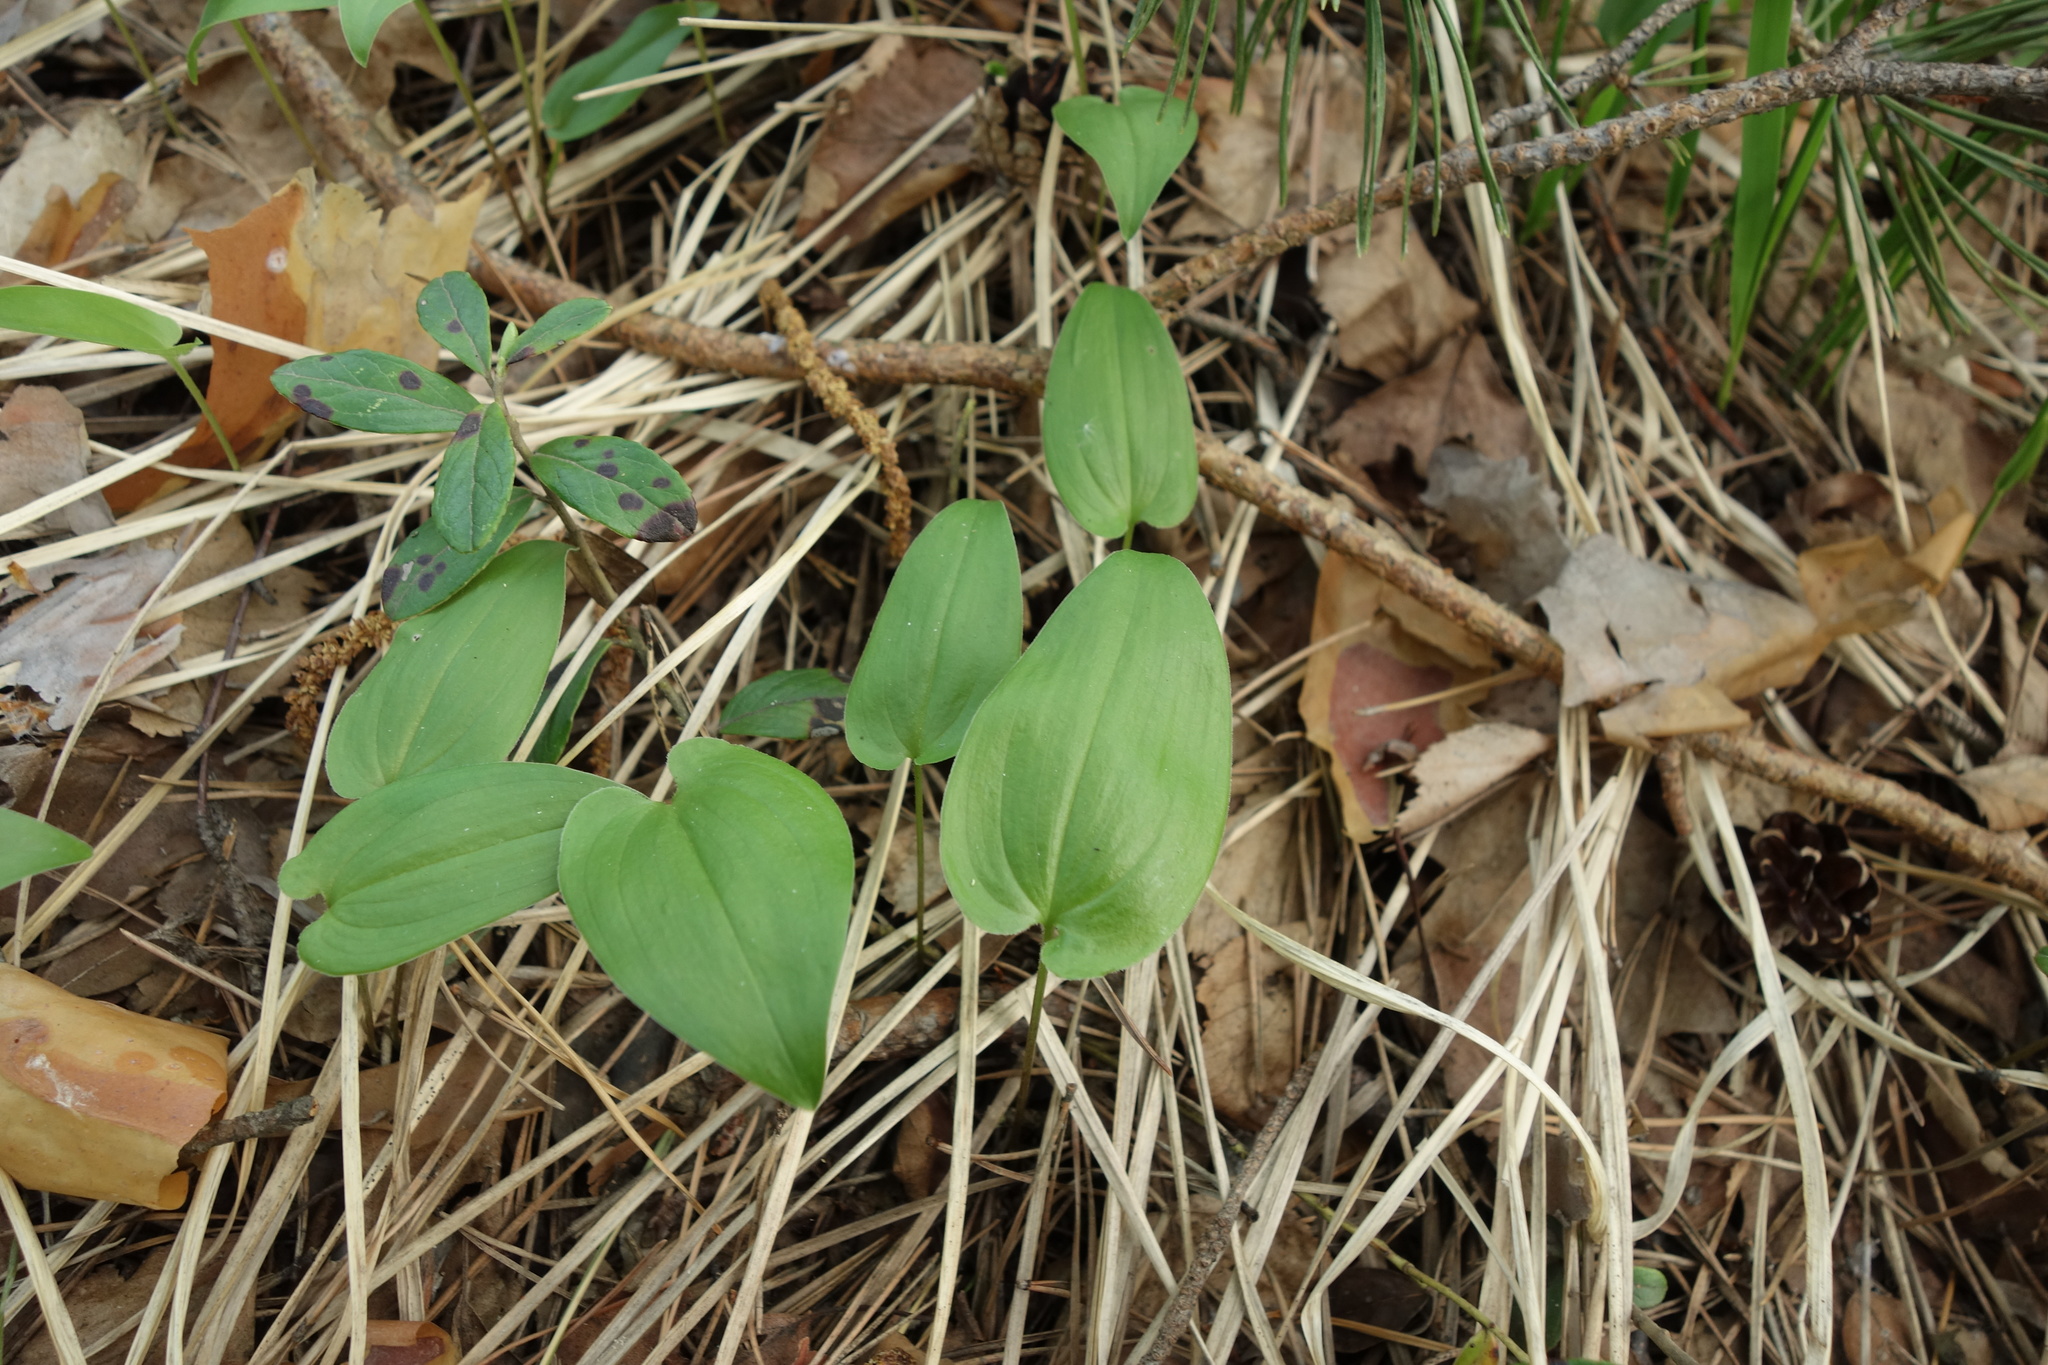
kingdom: Plantae
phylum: Tracheophyta
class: Liliopsida
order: Asparagales
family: Asparagaceae
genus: Maianthemum
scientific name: Maianthemum bifolium
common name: May lily
